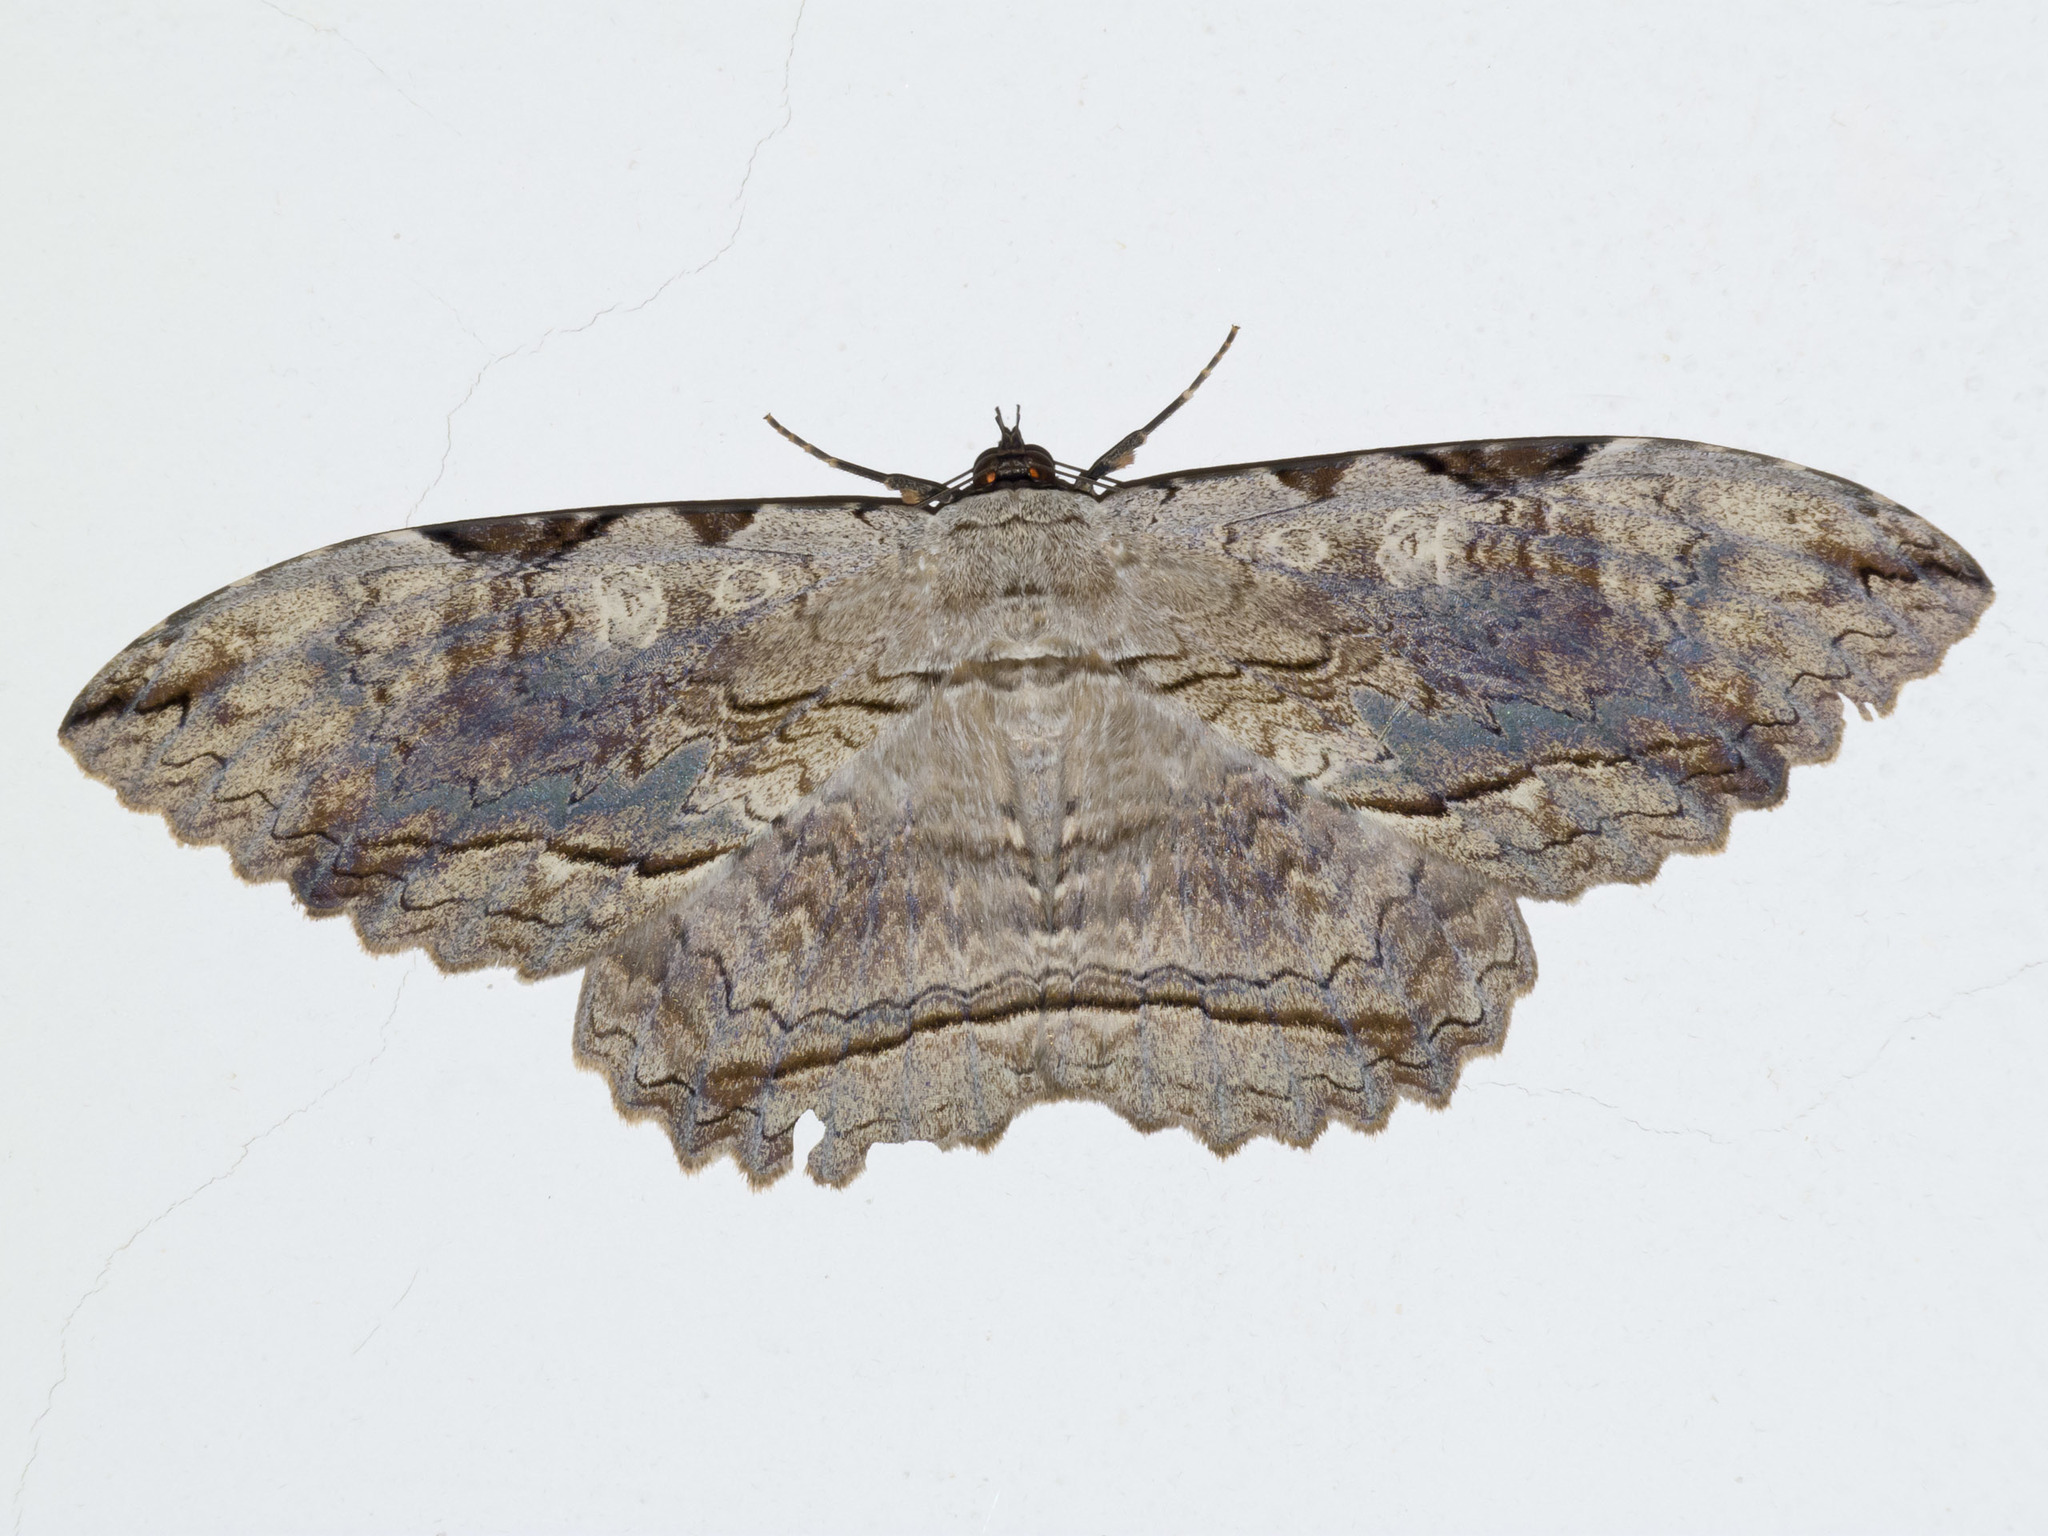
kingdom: Animalia
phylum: Arthropoda
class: Insecta
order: Lepidoptera
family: Erebidae
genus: Thysania
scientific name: Thysania zenobia
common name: Owl moth
